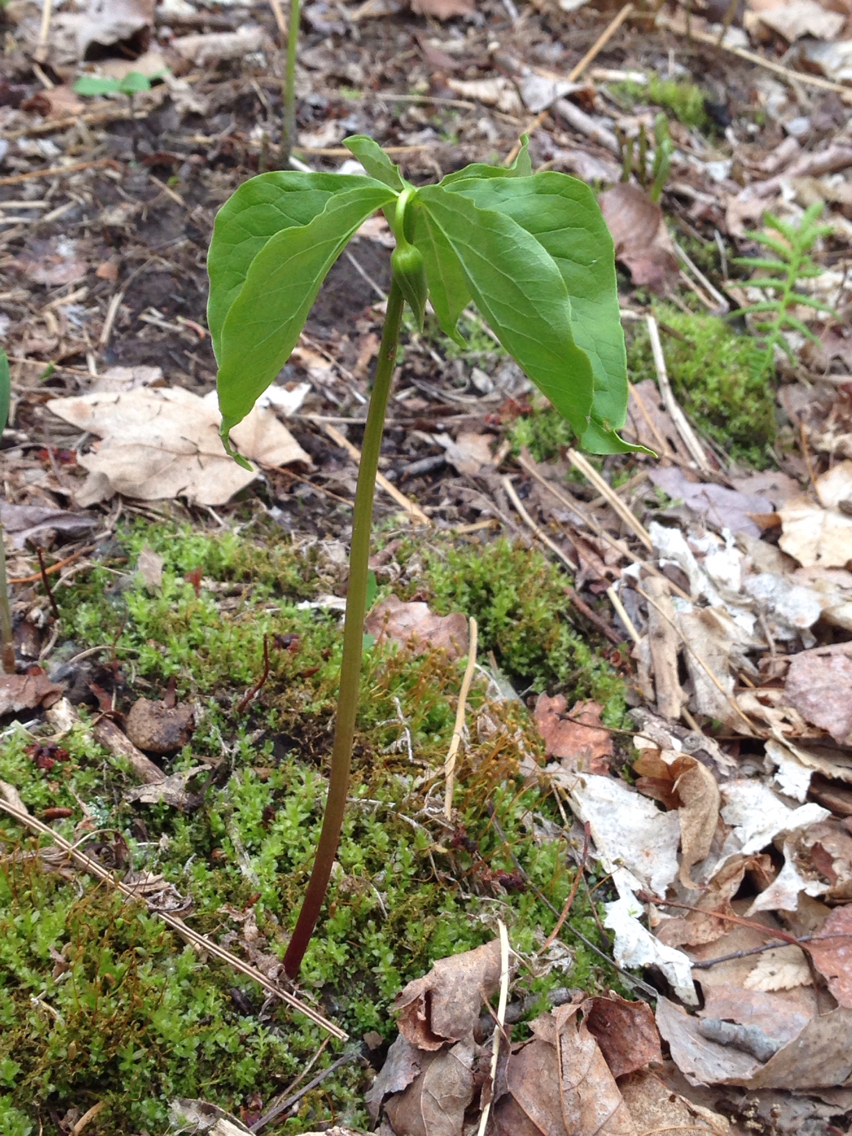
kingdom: Plantae
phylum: Tracheophyta
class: Liliopsida
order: Liliales
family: Melanthiaceae
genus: Trillium
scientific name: Trillium cernuum
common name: Nodding trillium
